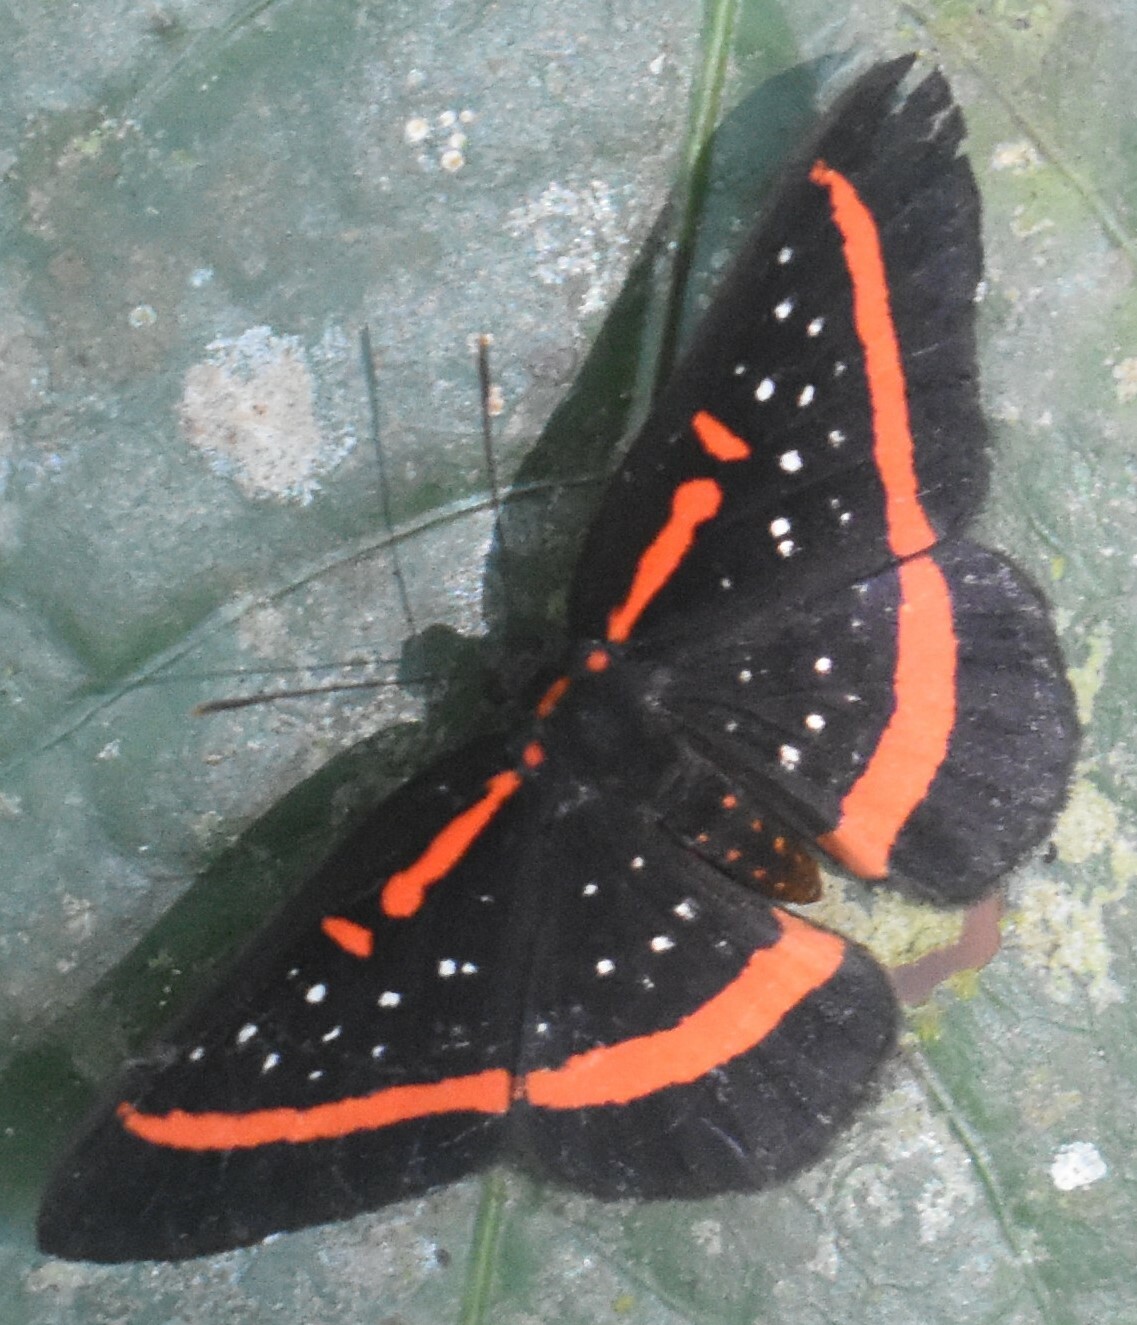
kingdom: Animalia
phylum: Arthropoda
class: Insecta
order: Lepidoptera
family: Riodinidae
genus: Amarynthis
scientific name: Amarynthis meneria
